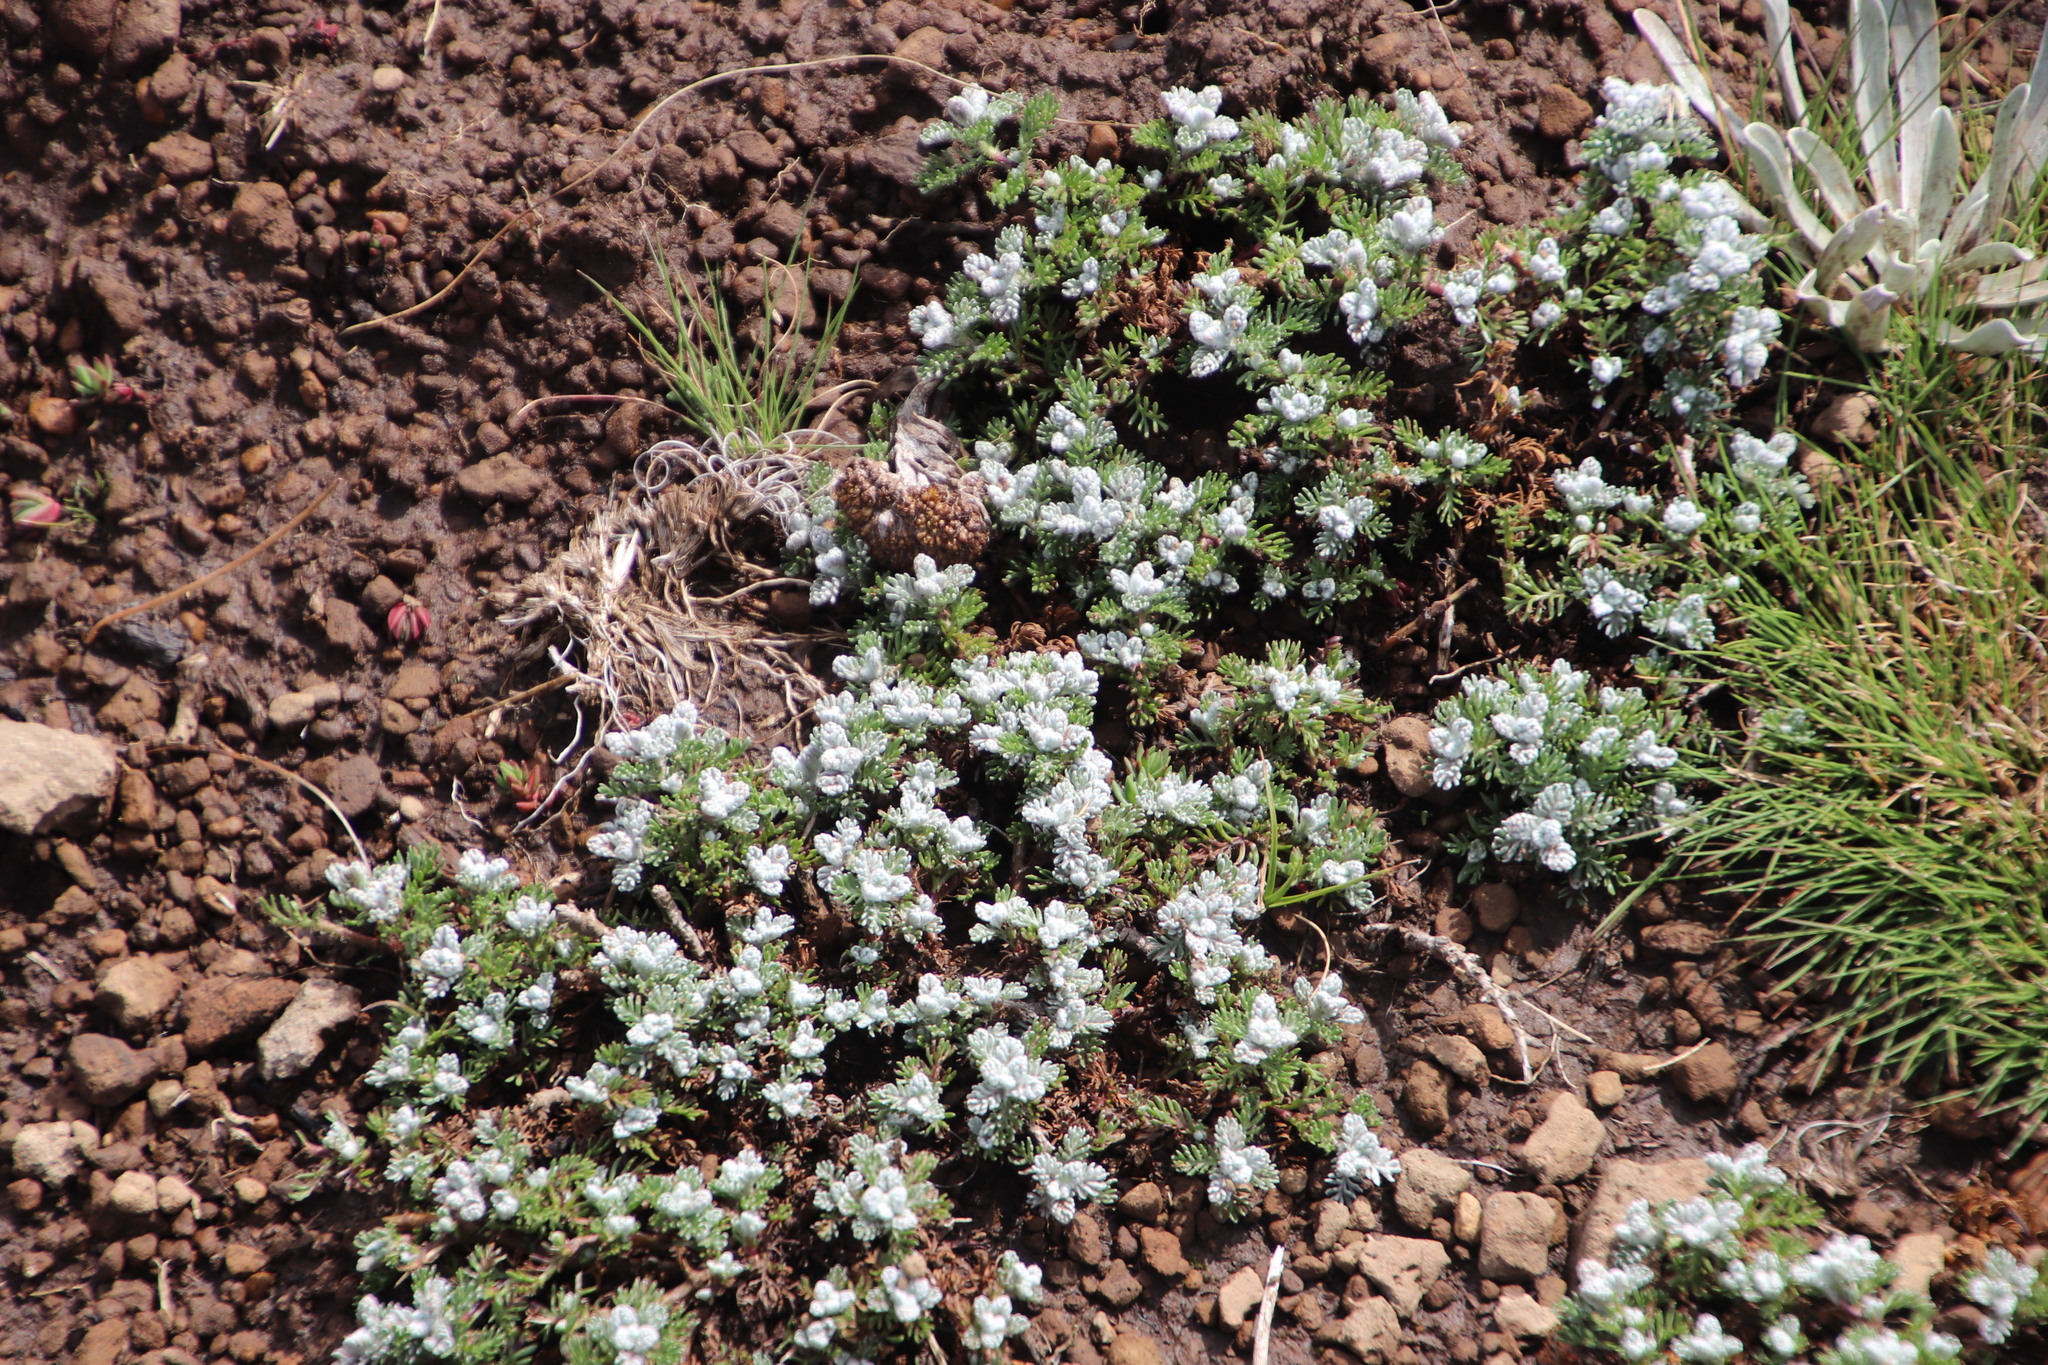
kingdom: Plantae
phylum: Tracheophyta
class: Magnoliopsida
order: Asterales
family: Asteraceae
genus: Senecio
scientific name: Senecio seminiveus
